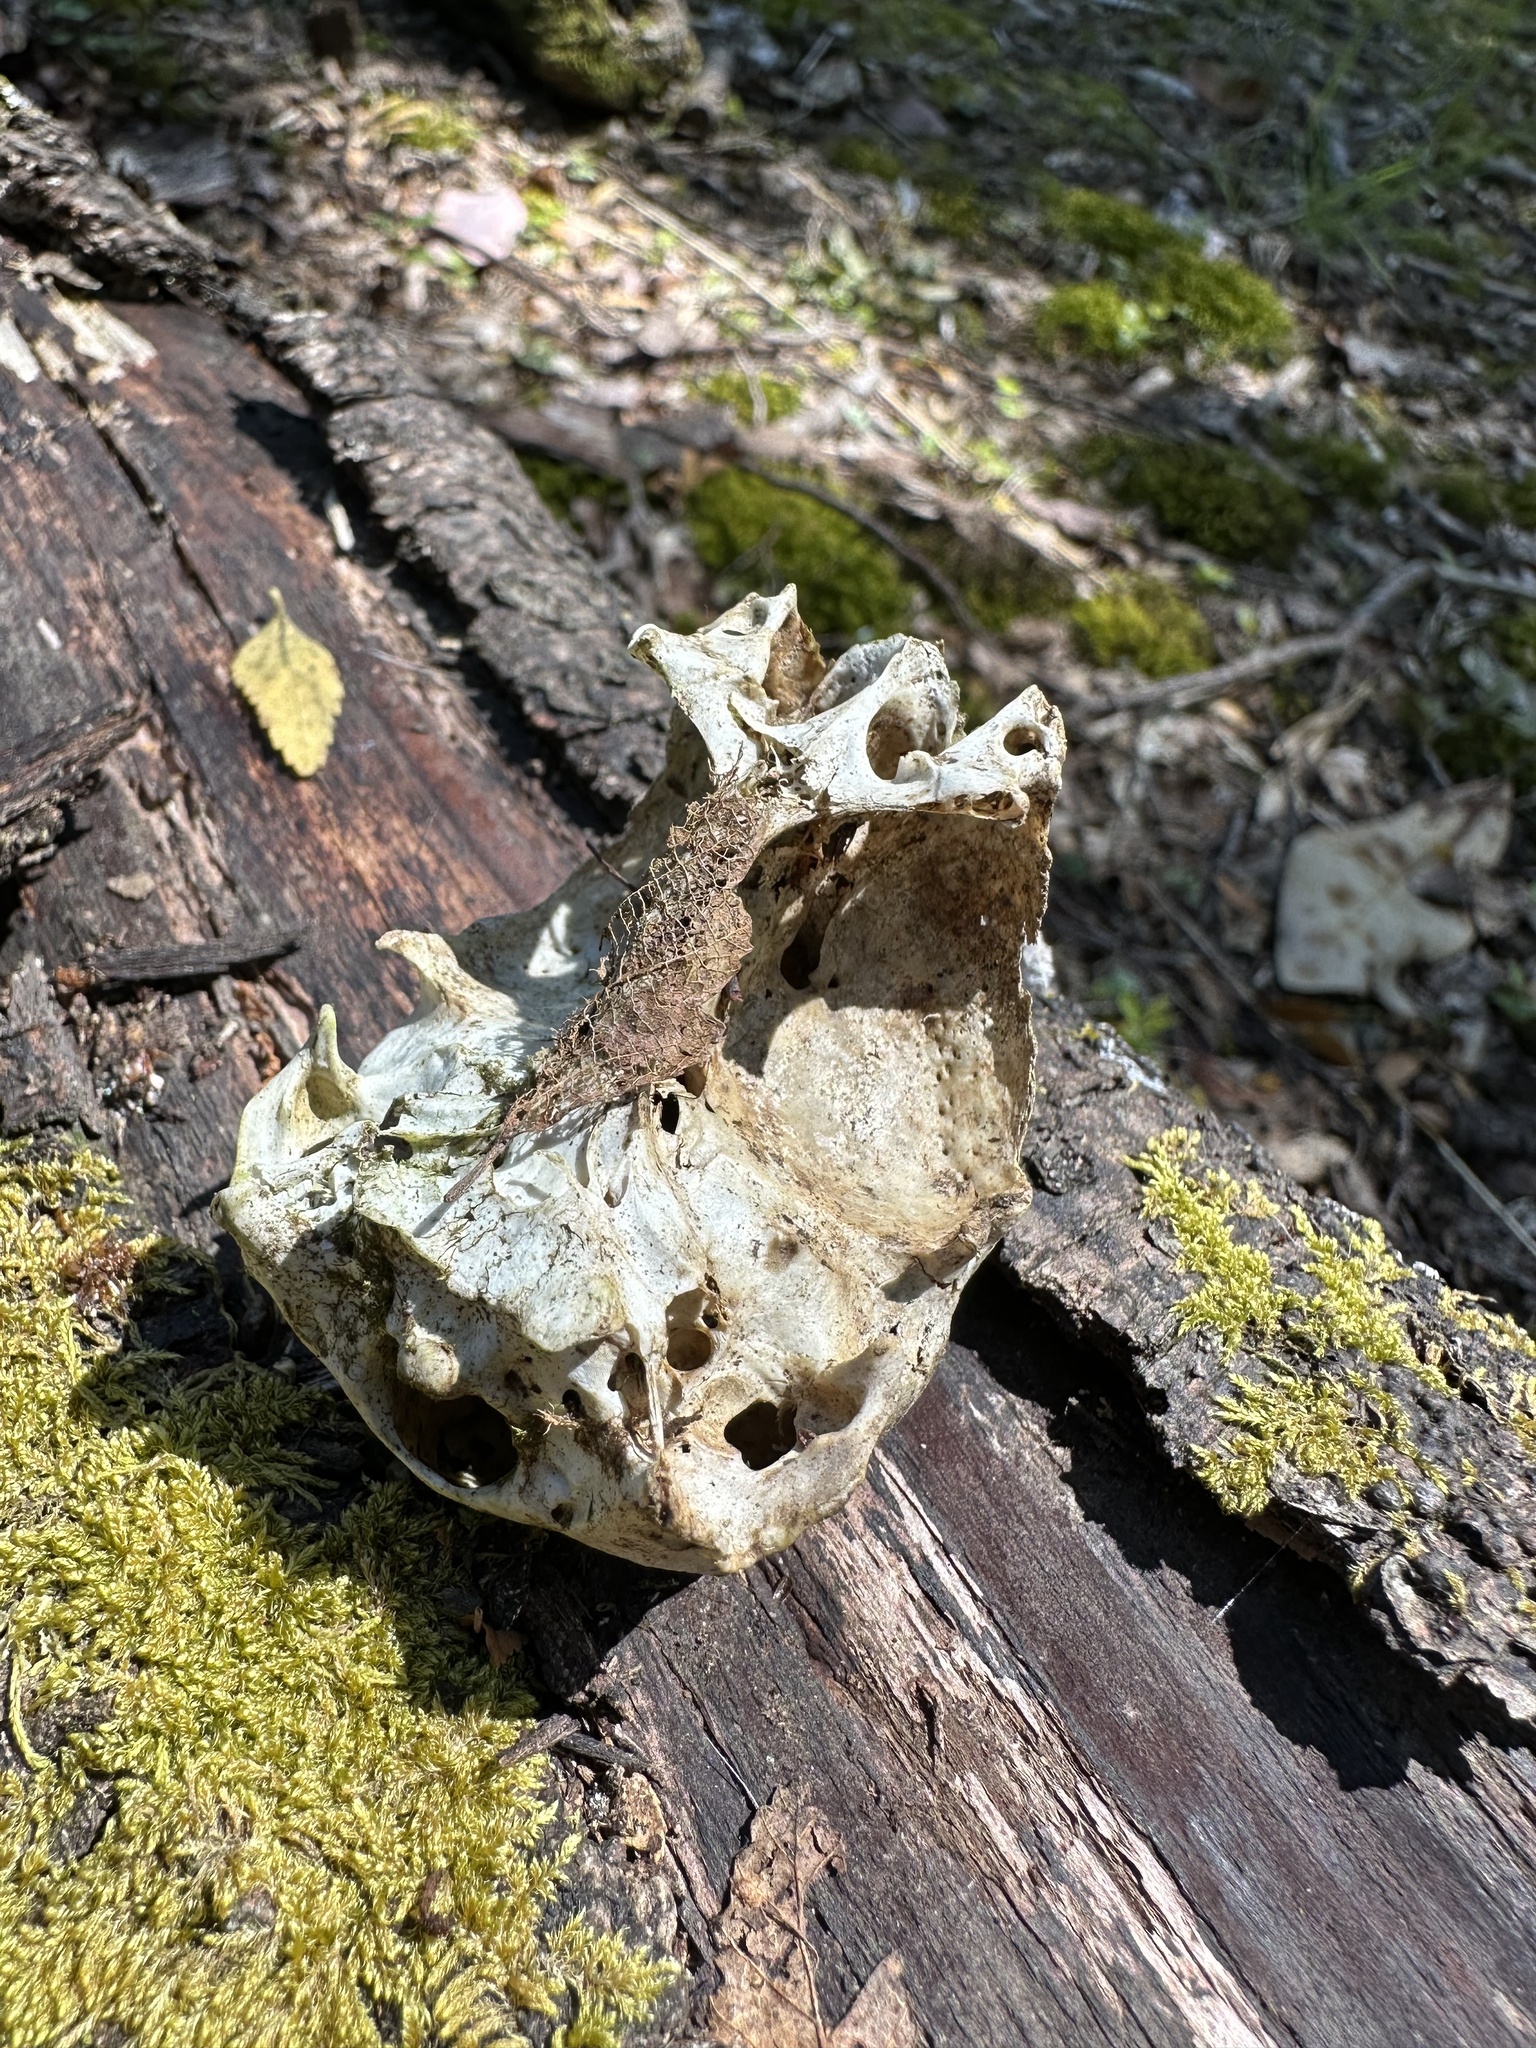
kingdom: Animalia
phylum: Chordata
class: Aves
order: Accipitriformes
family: Cathartidae
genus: Coragyps
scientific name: Coragyps atratus
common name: Black vulture
